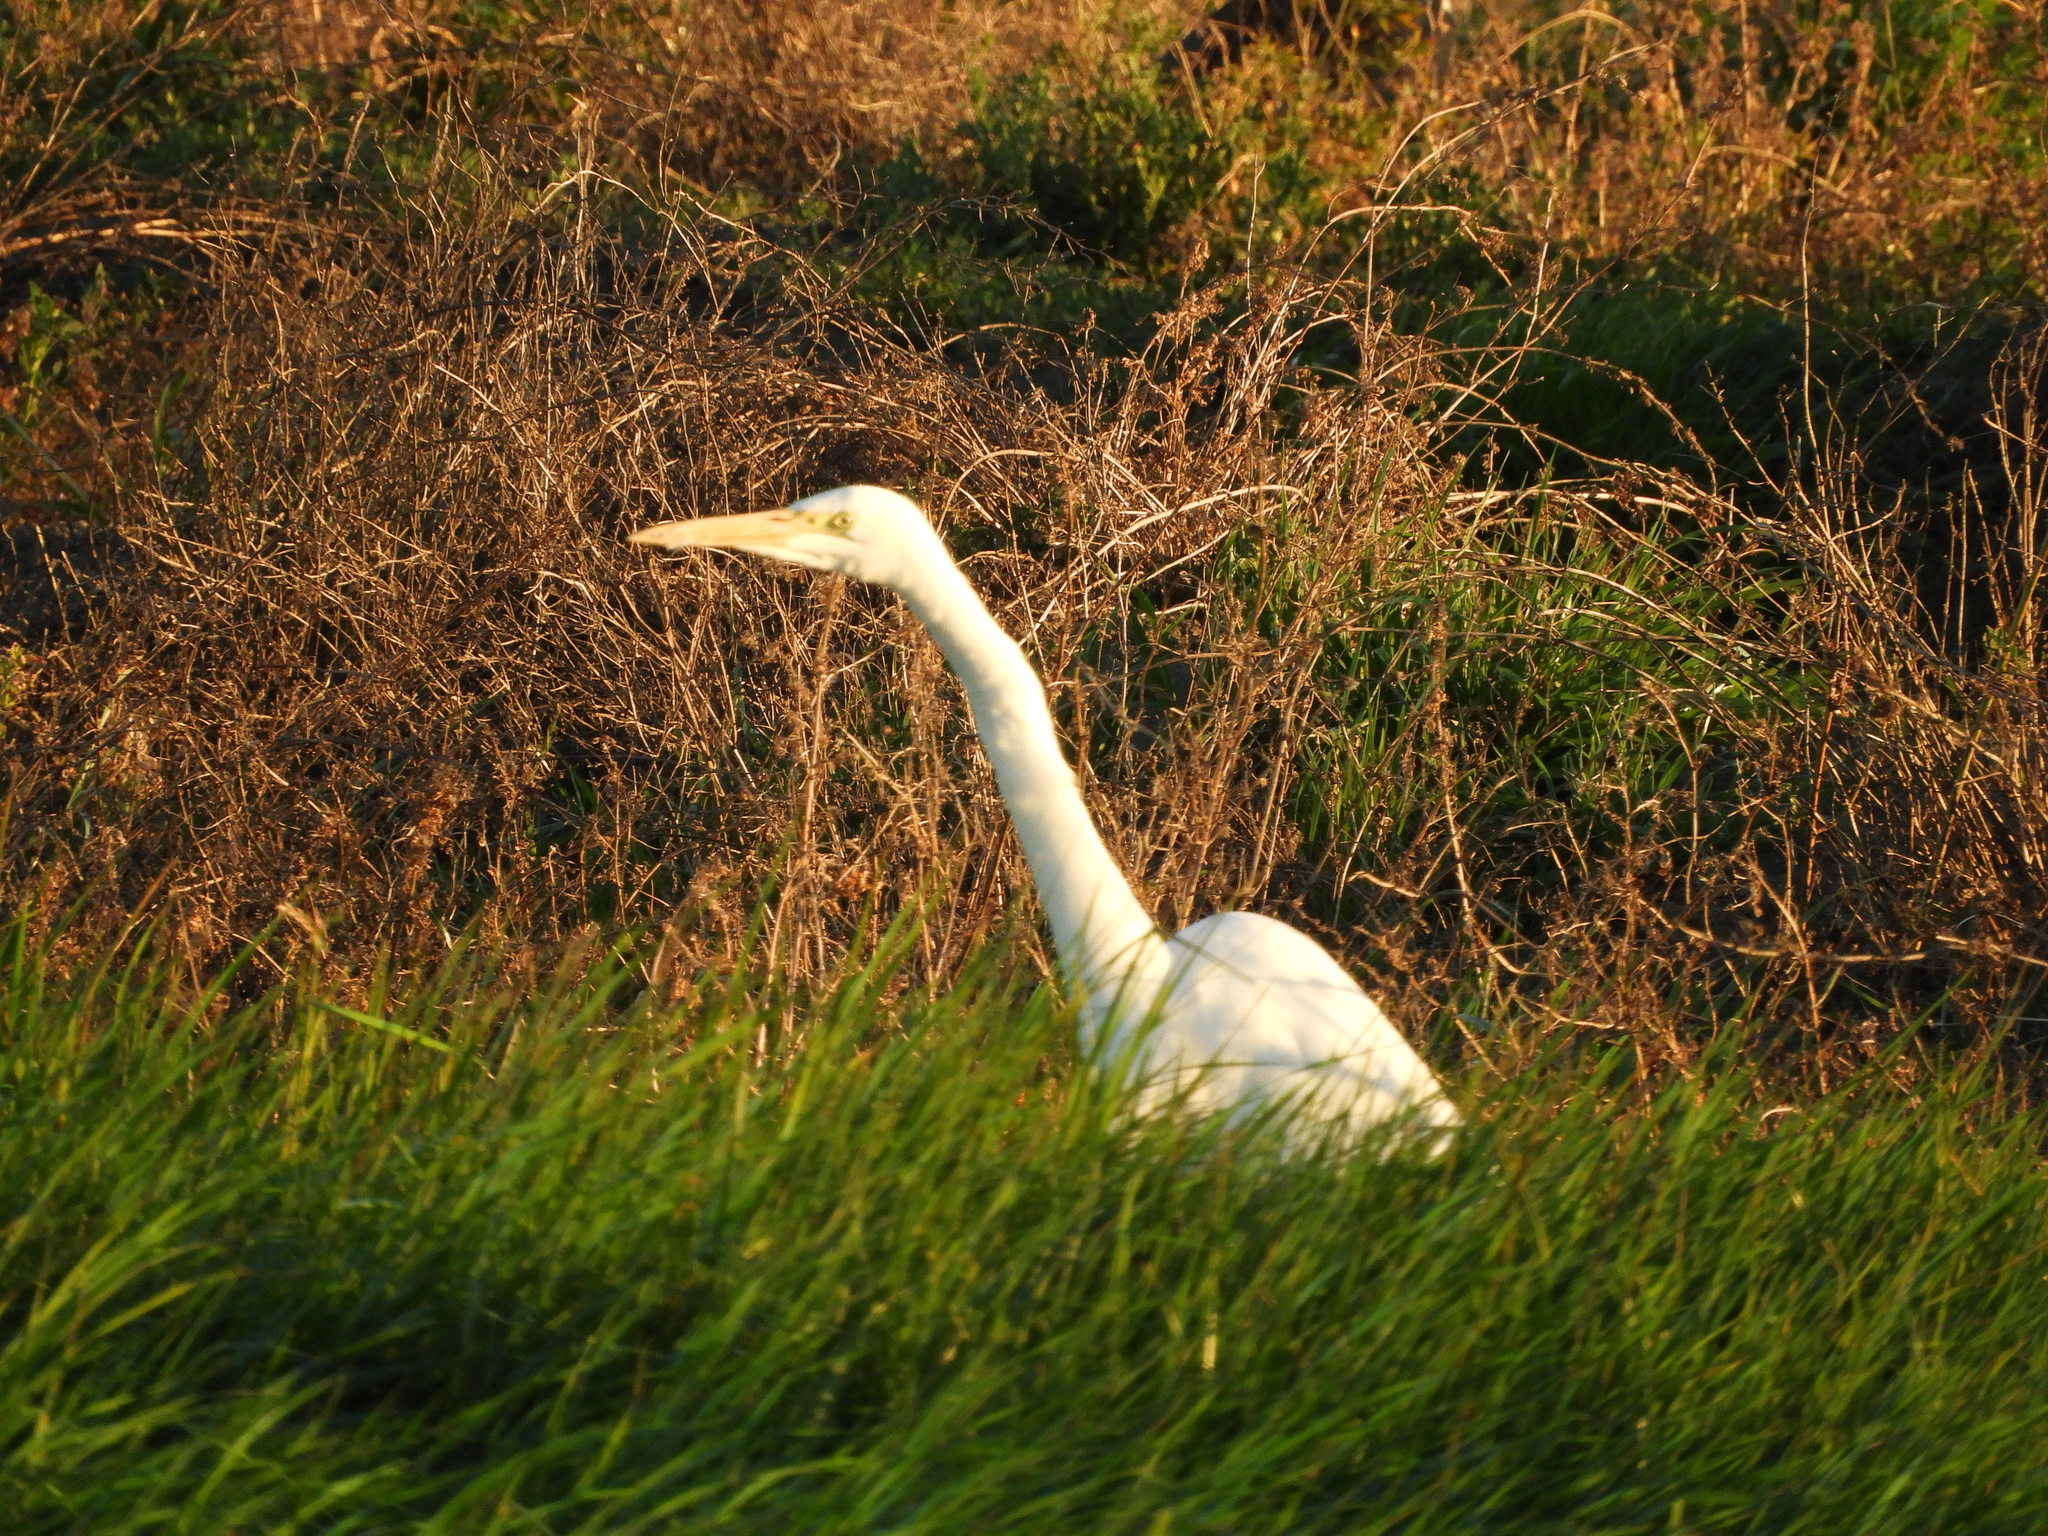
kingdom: Animalia
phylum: Chordata
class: Aves
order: Pelecaniformes
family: Ardeidae
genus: Ardea
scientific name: Ardea alba
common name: Great egret
